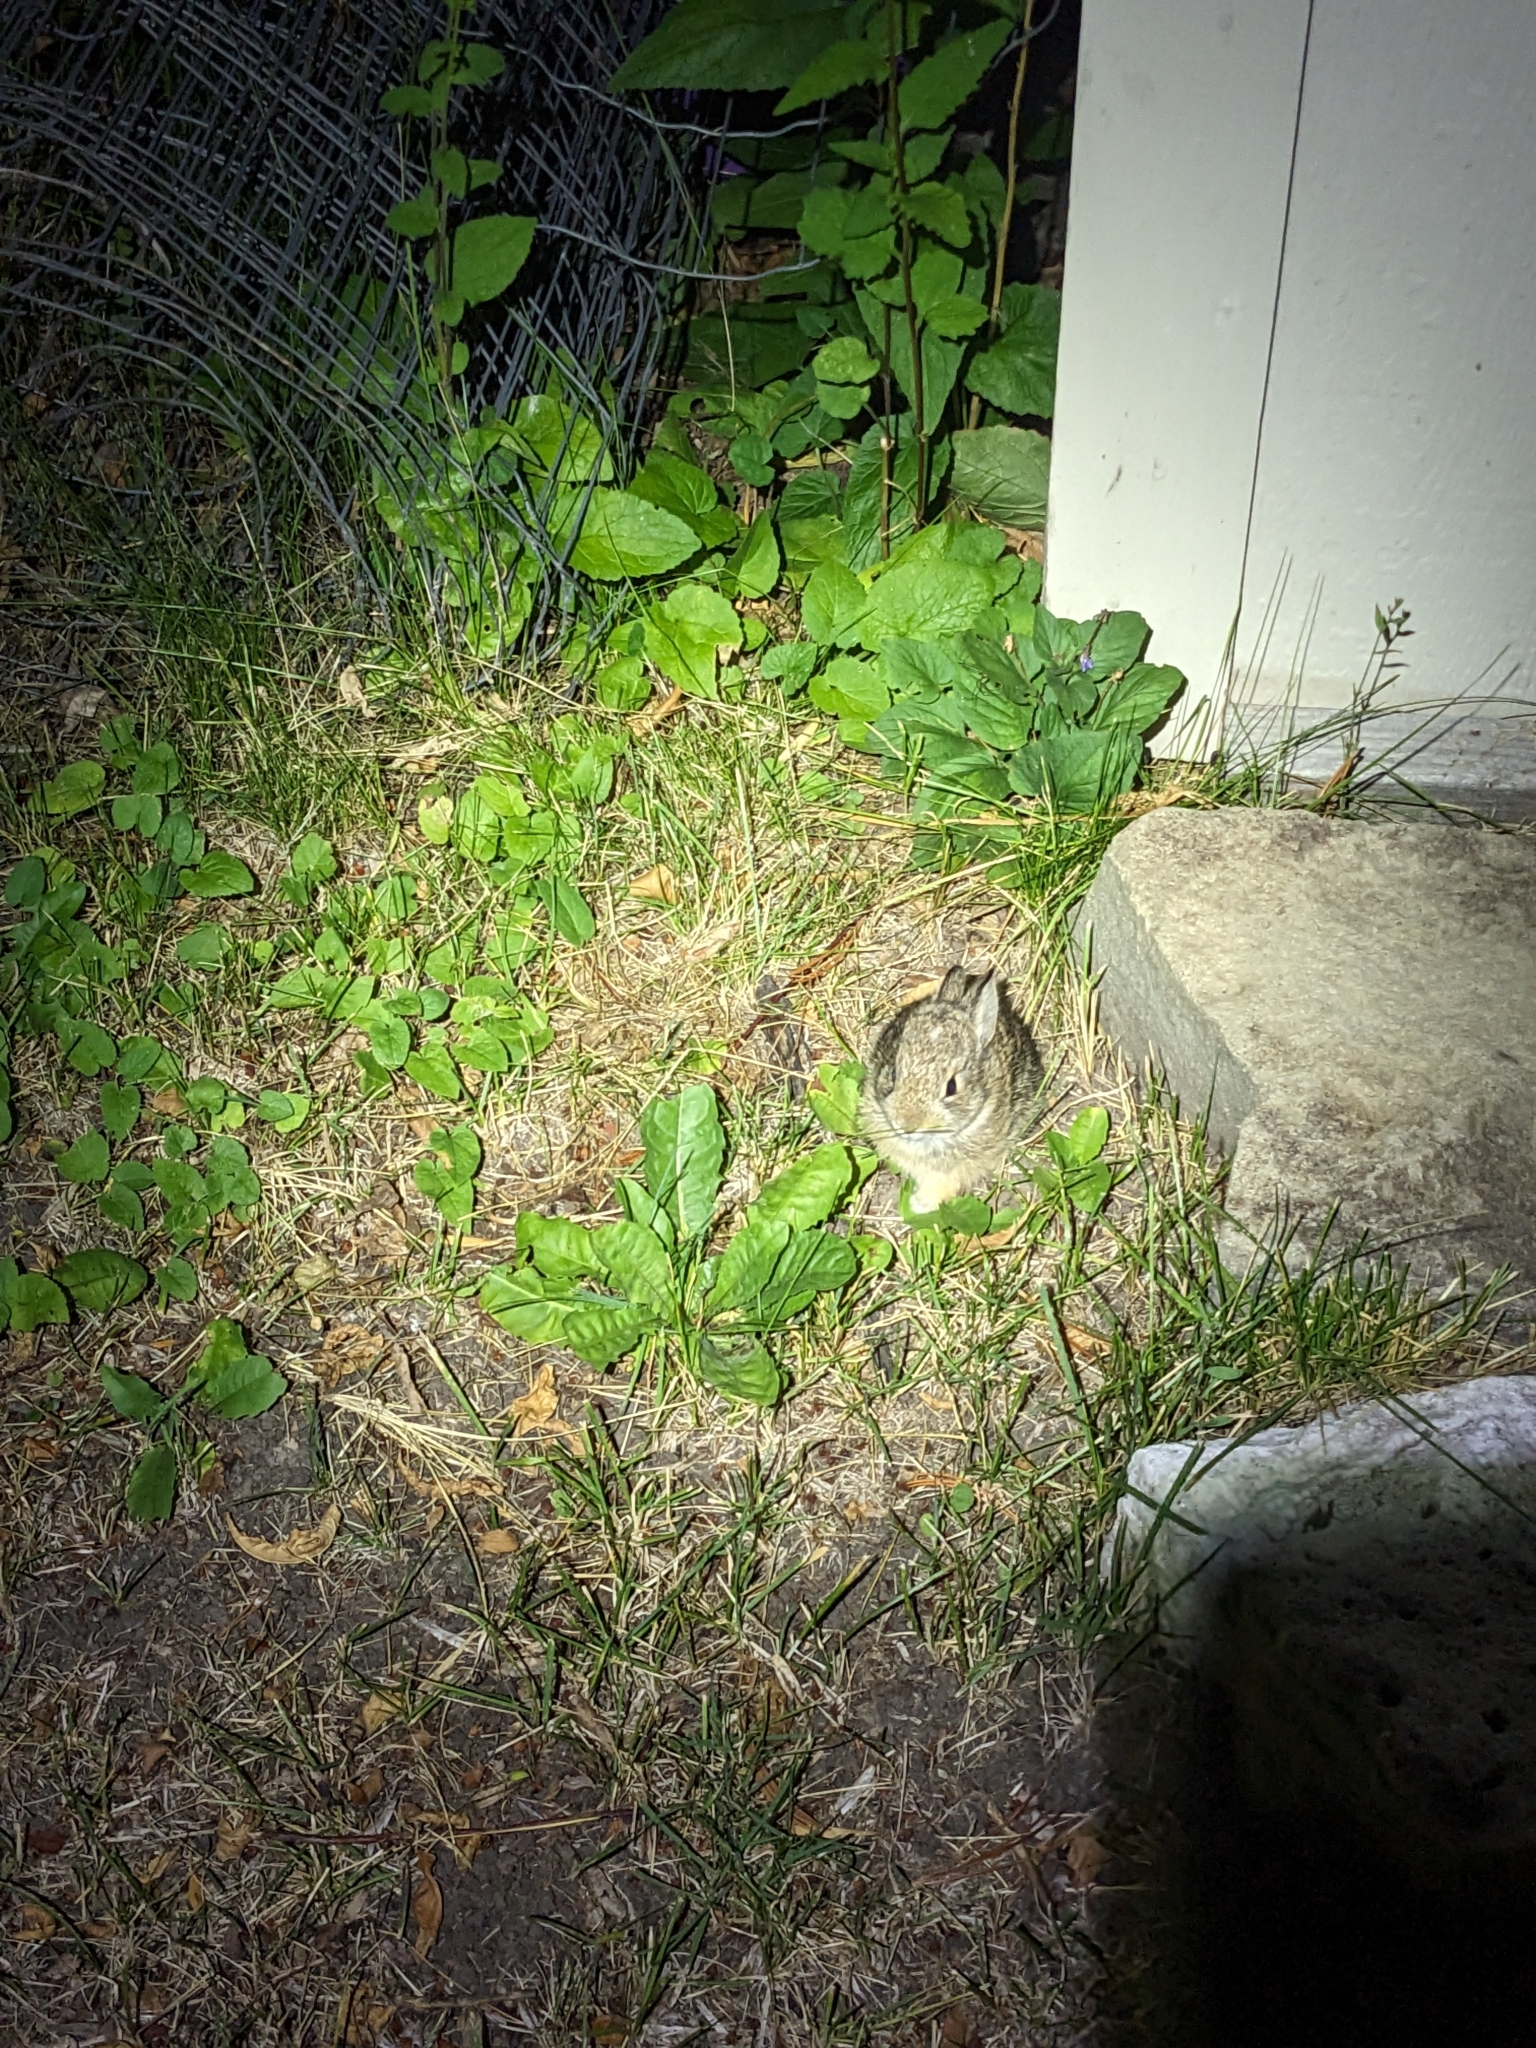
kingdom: Animalia
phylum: Chordata
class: Mammalia
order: Lagomorpha
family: Leporidae
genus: Sylvilagus
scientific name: Sylvilagus nuttallii
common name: Mountain cottontail
